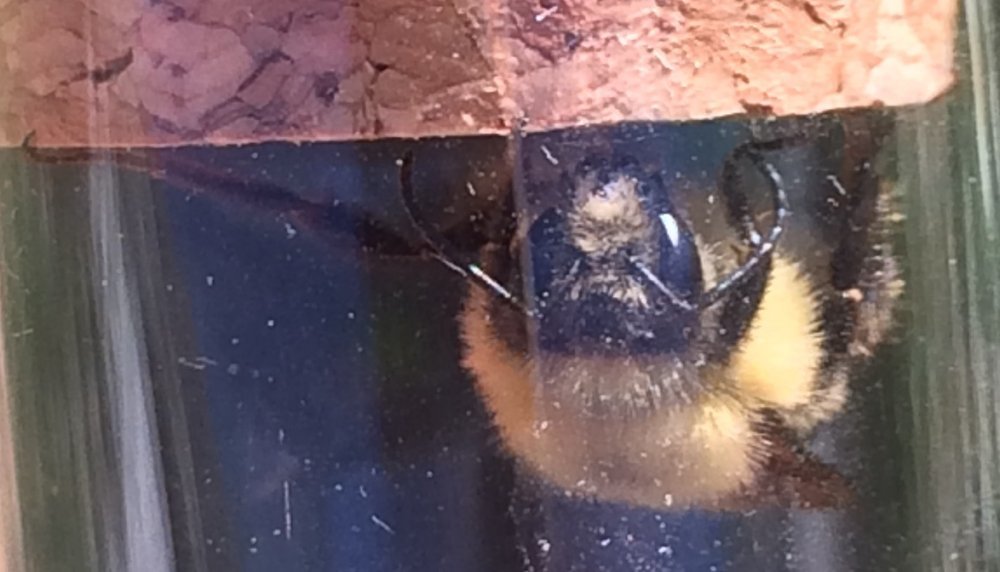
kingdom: Animalia
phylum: Arthropoda
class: Insecta
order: Hymenoptera
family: Apidae
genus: Bombus
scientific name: Bombus bimaculatus
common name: Two-spotted bumble bee
